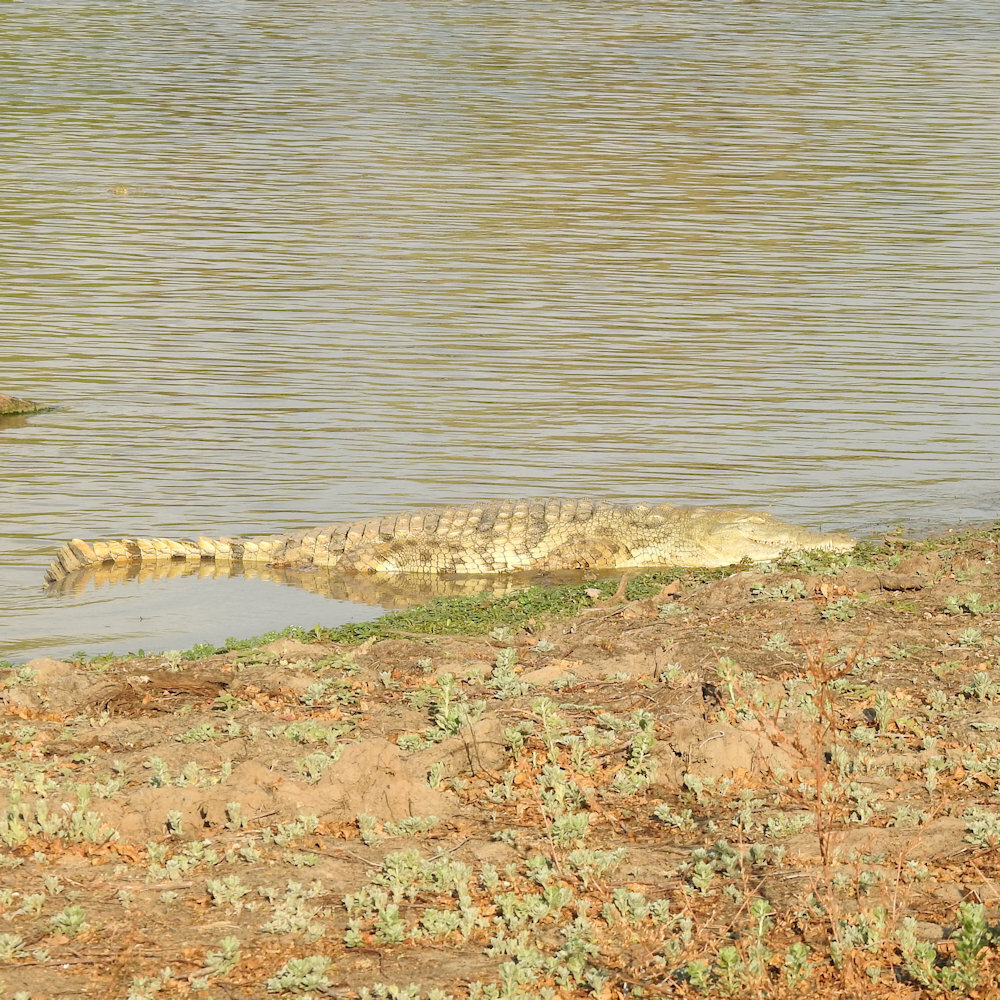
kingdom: Animalia
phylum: Chordata
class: Crocodylia
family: Crocodylidae
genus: Crocodylus
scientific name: Crocodylus niloticus
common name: Nile crocodile
